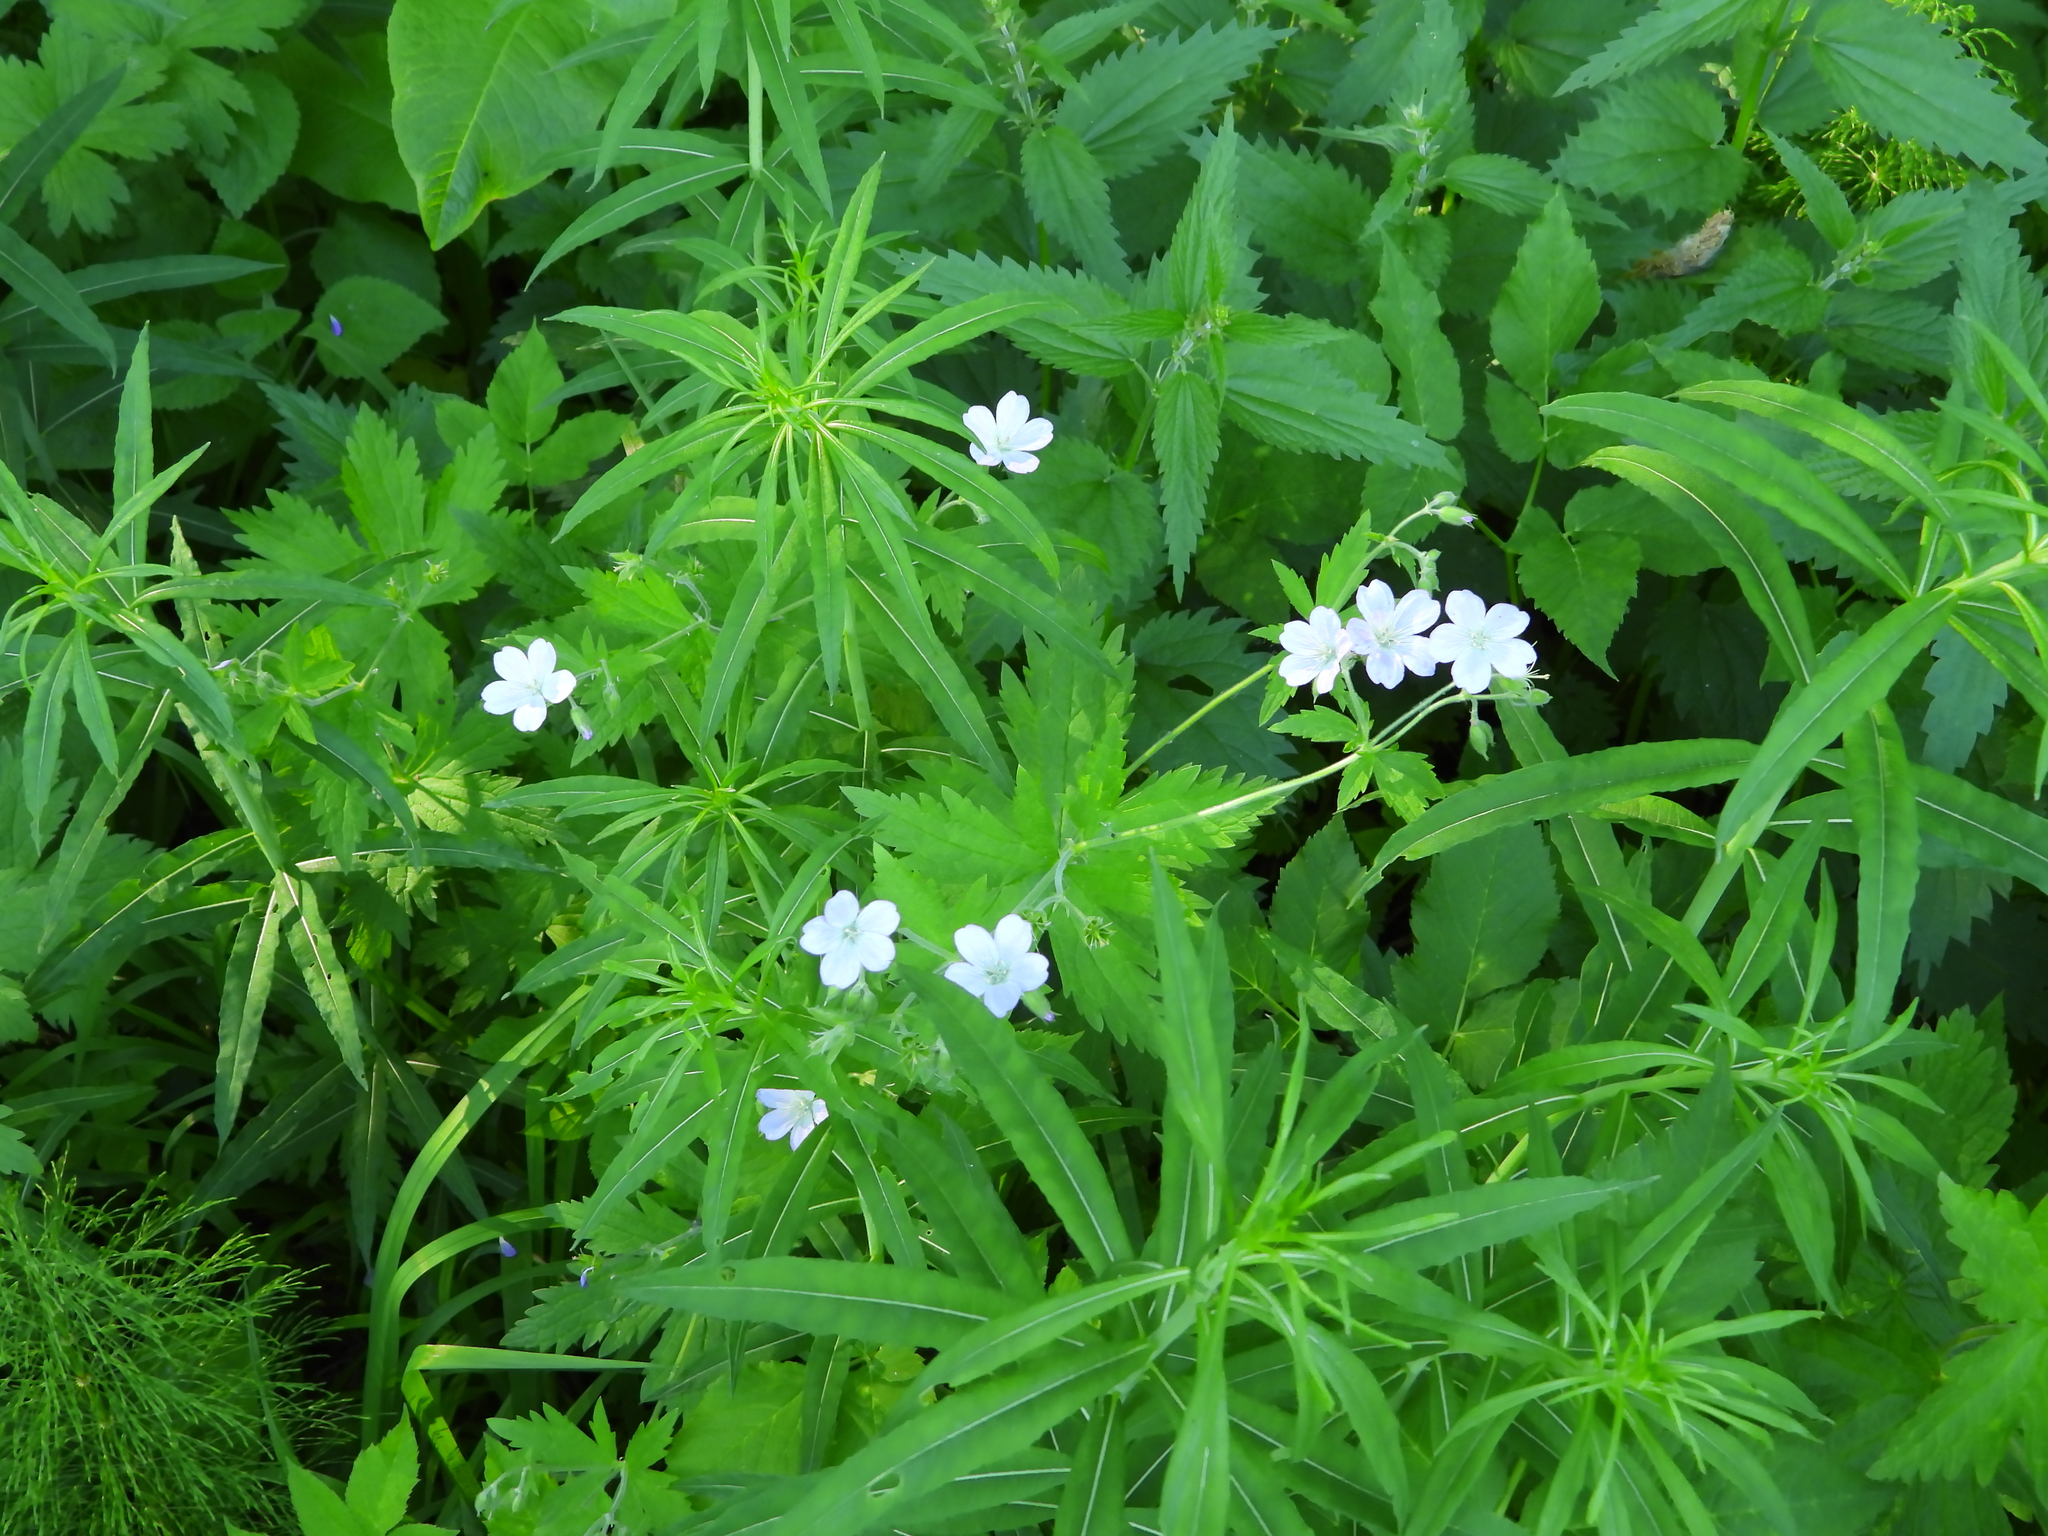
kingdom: Plantae
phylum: Tracheophyta
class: Magnoliopsida
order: Geraniales
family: Geraniaceae
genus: Geranium
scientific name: Geranium sylvaticum
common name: Wood crane's-bill
